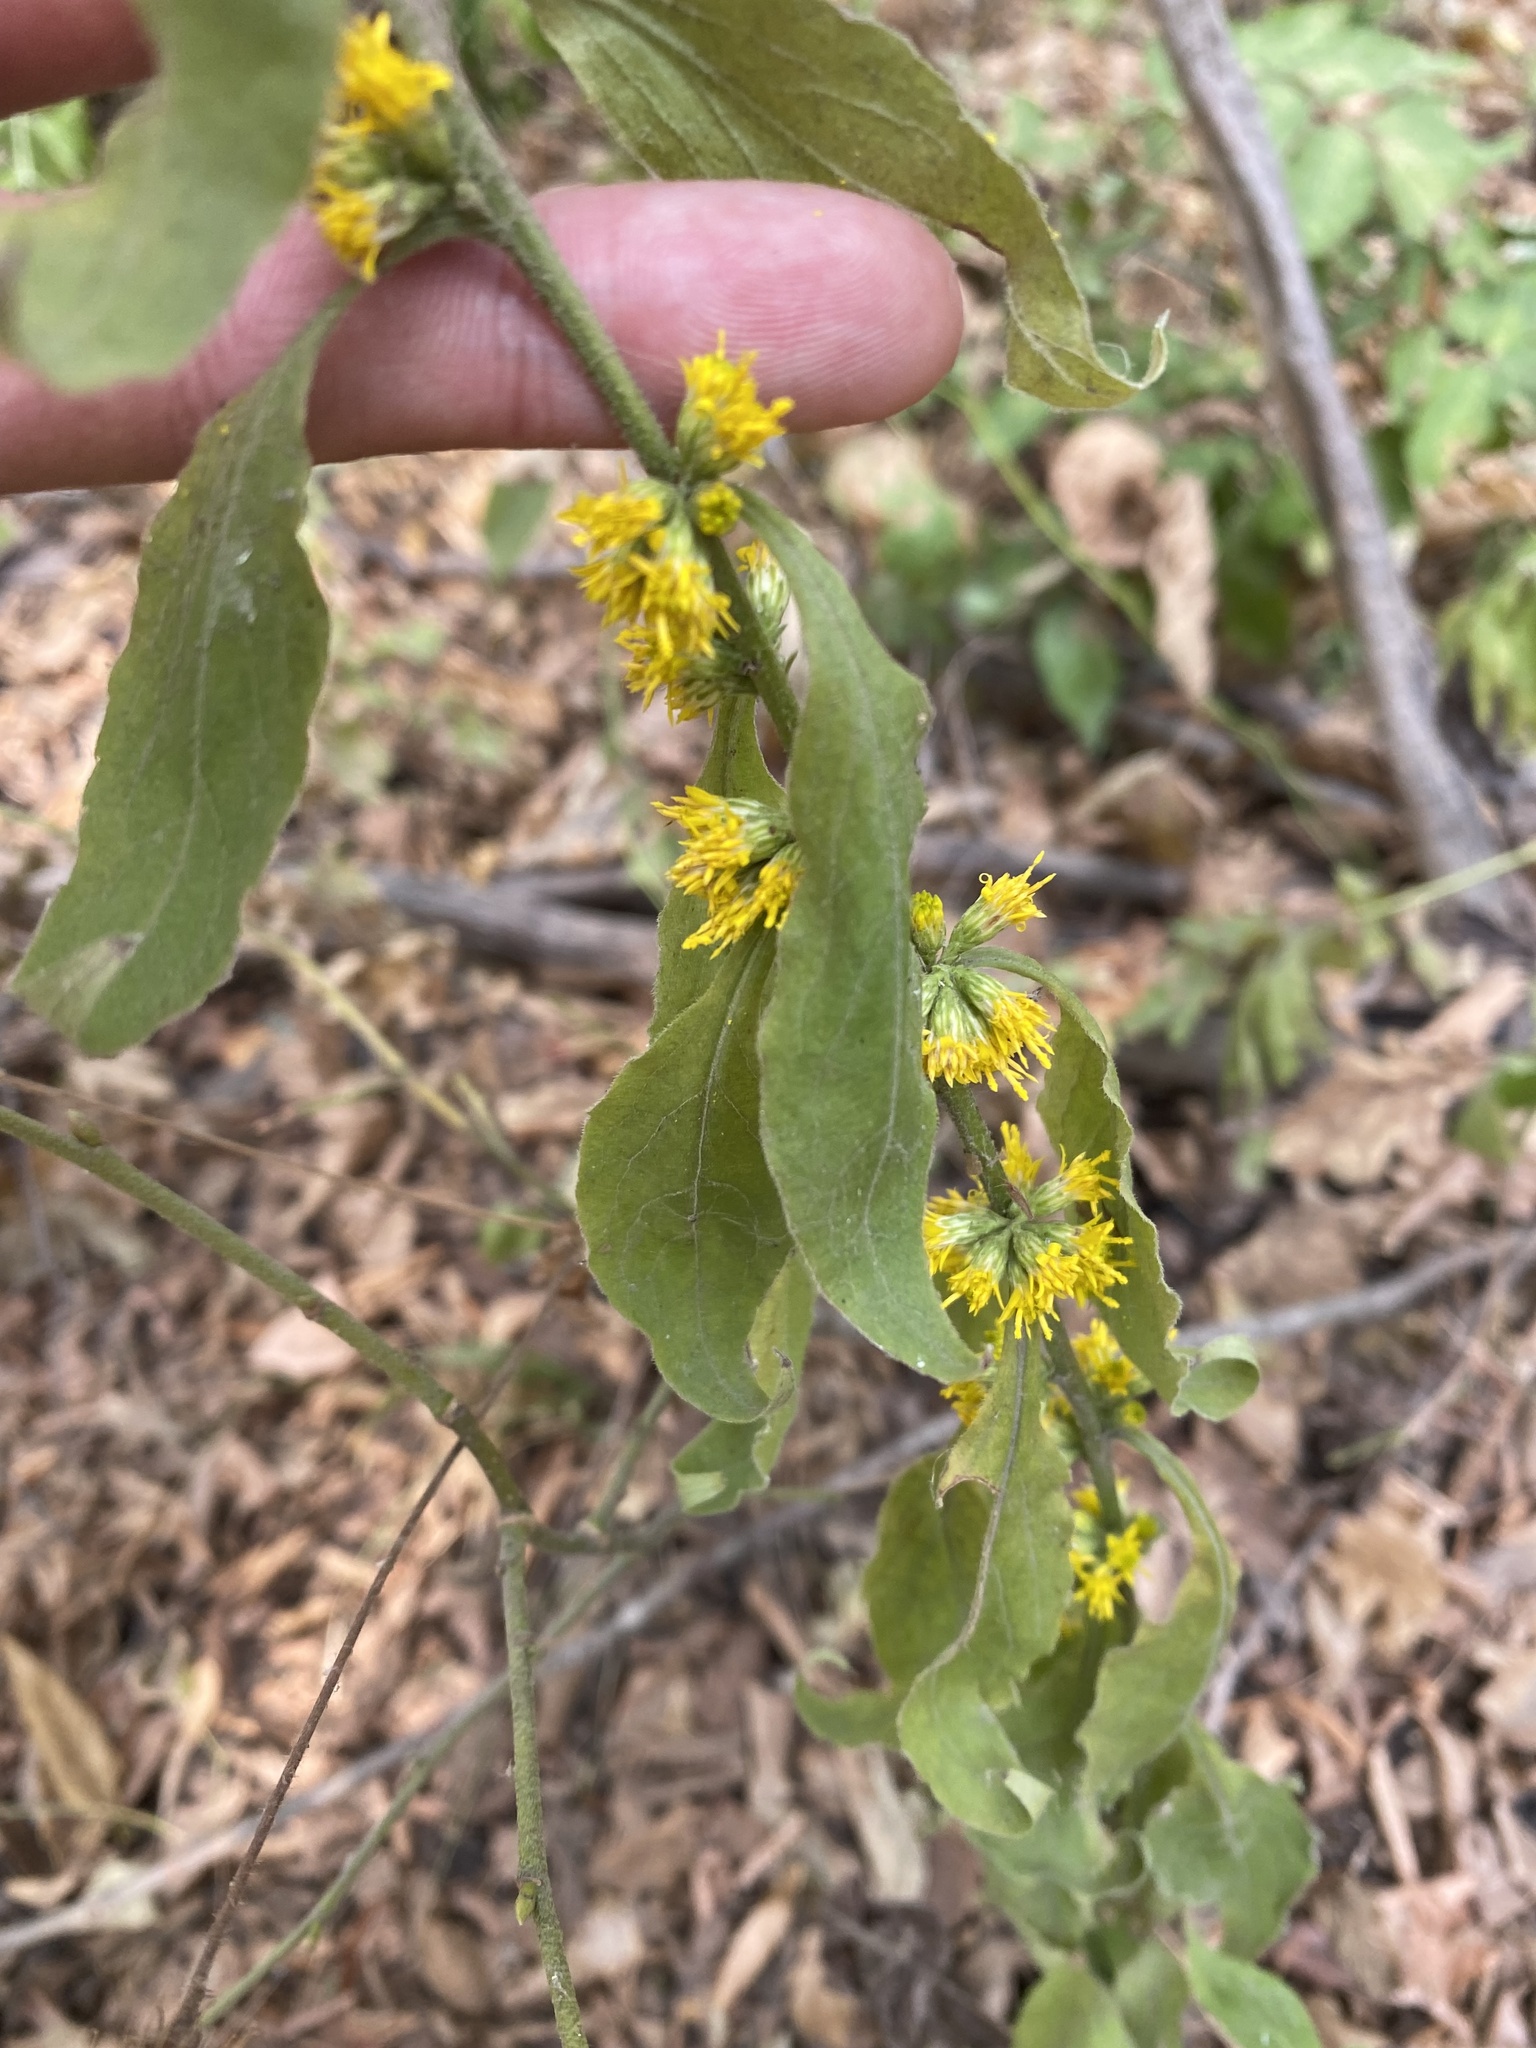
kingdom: Plantae
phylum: Tracheophyta
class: Magnoliopsida
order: Asterales
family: Asteraceae
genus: Solidago
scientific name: Solidago virgaurea
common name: Goldenrod
